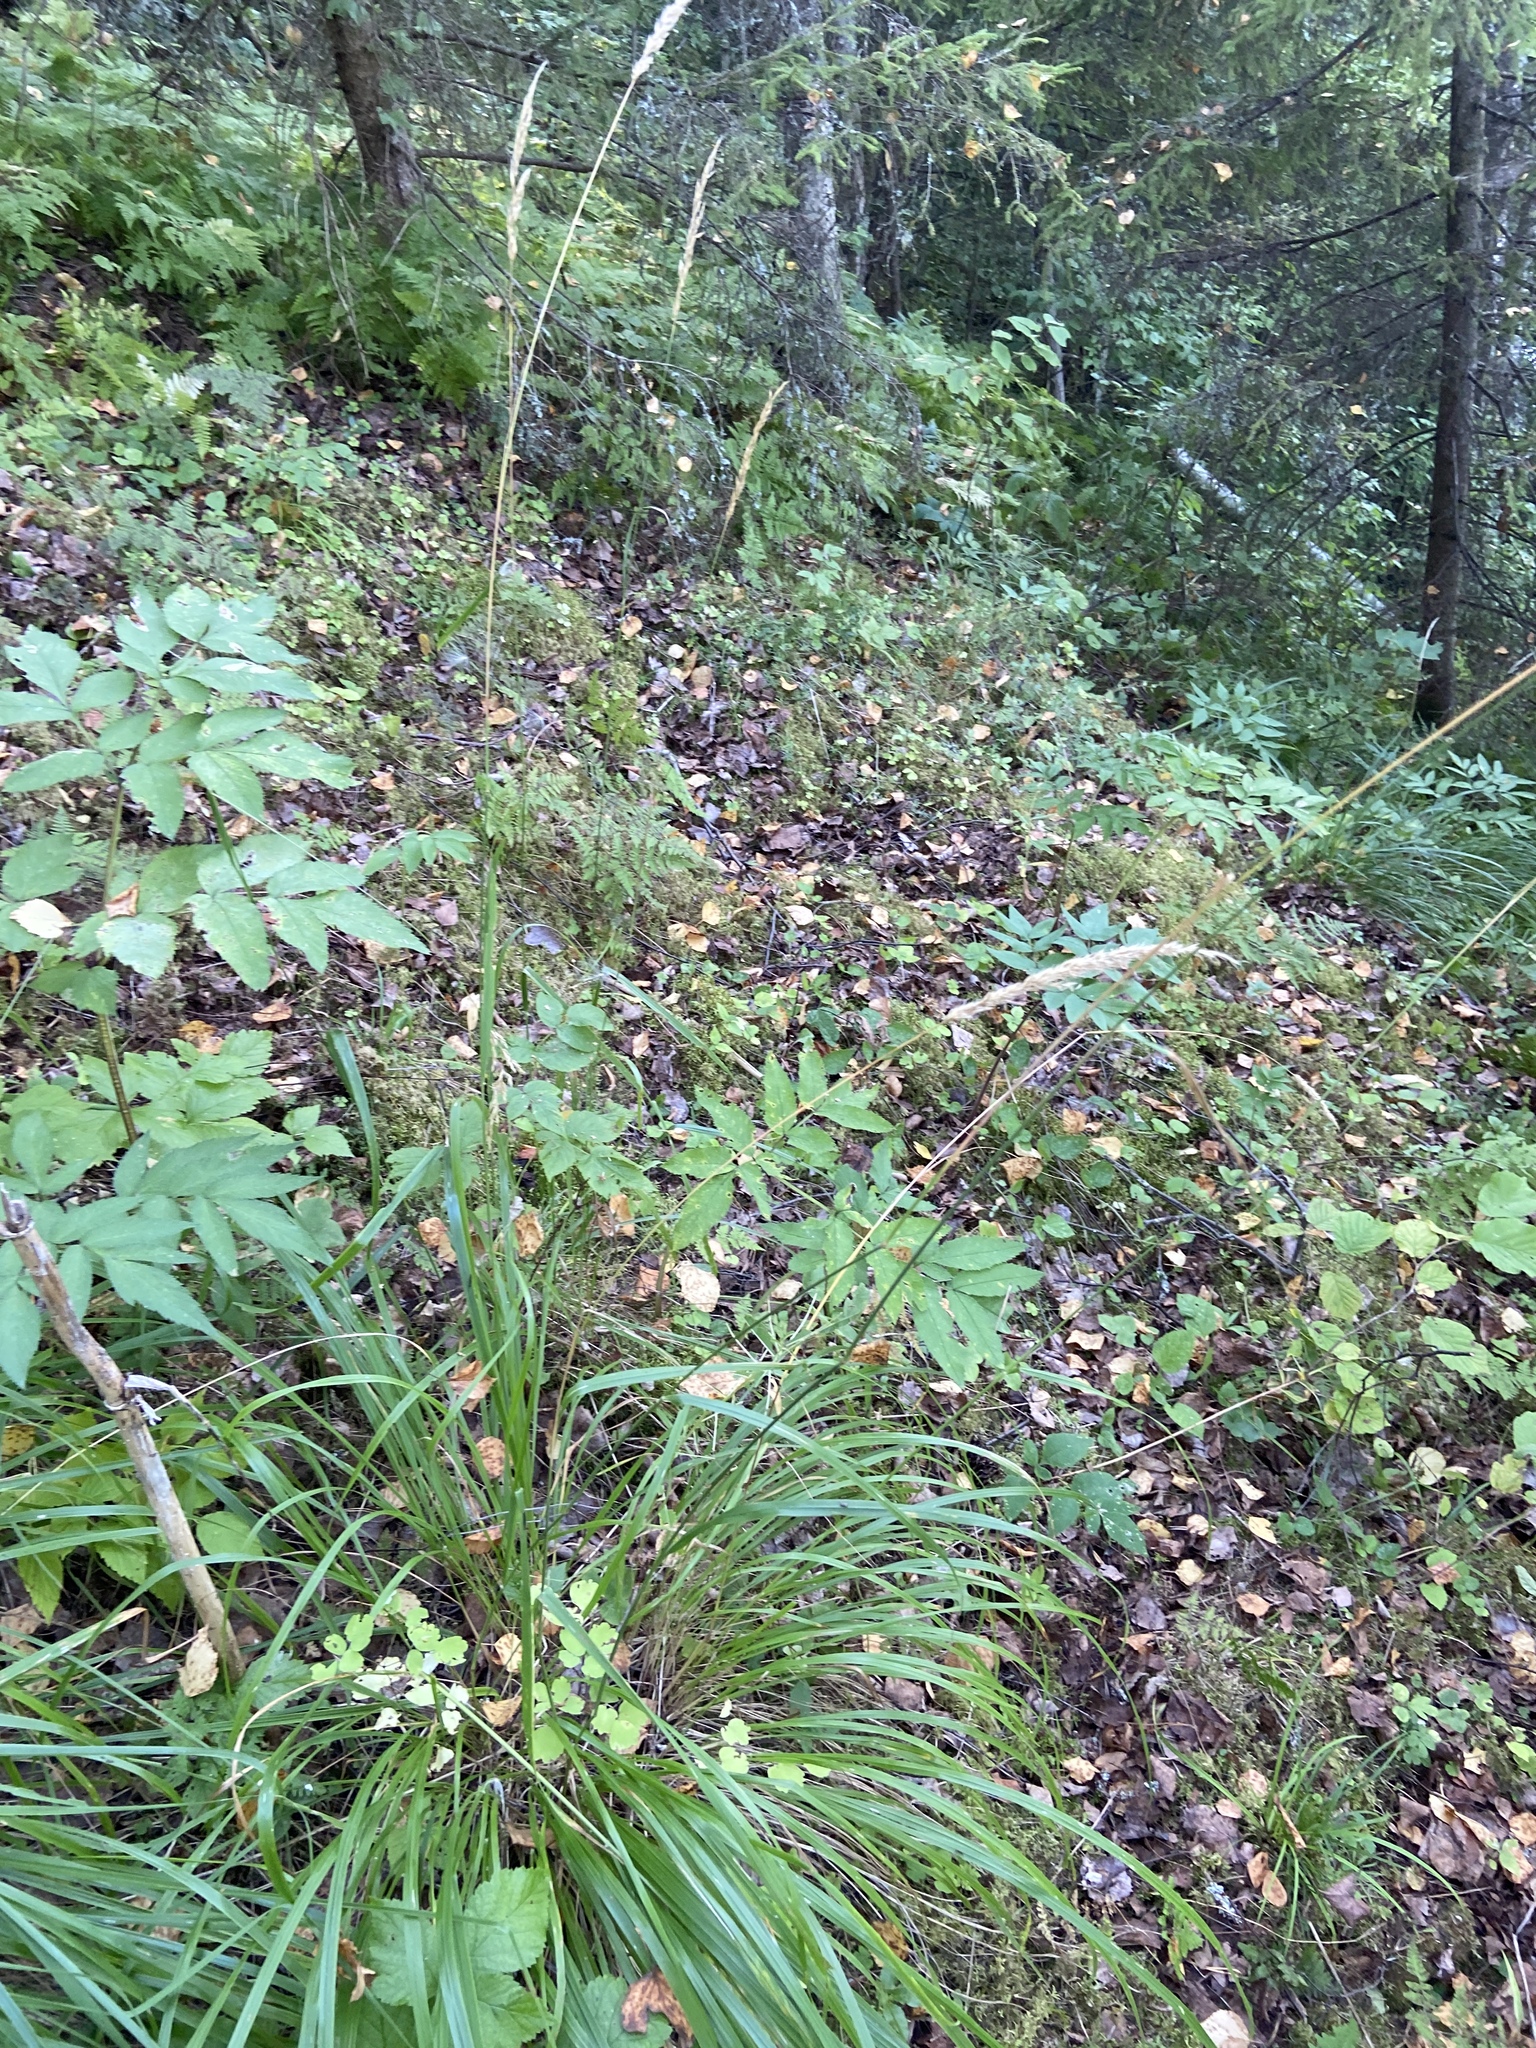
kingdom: Plantae
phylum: Tracheophyta
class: Liliopsida
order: Poales
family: Poaceae
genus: Calamagrostis
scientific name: Calamagrostis arundinacea
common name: Metskastik
